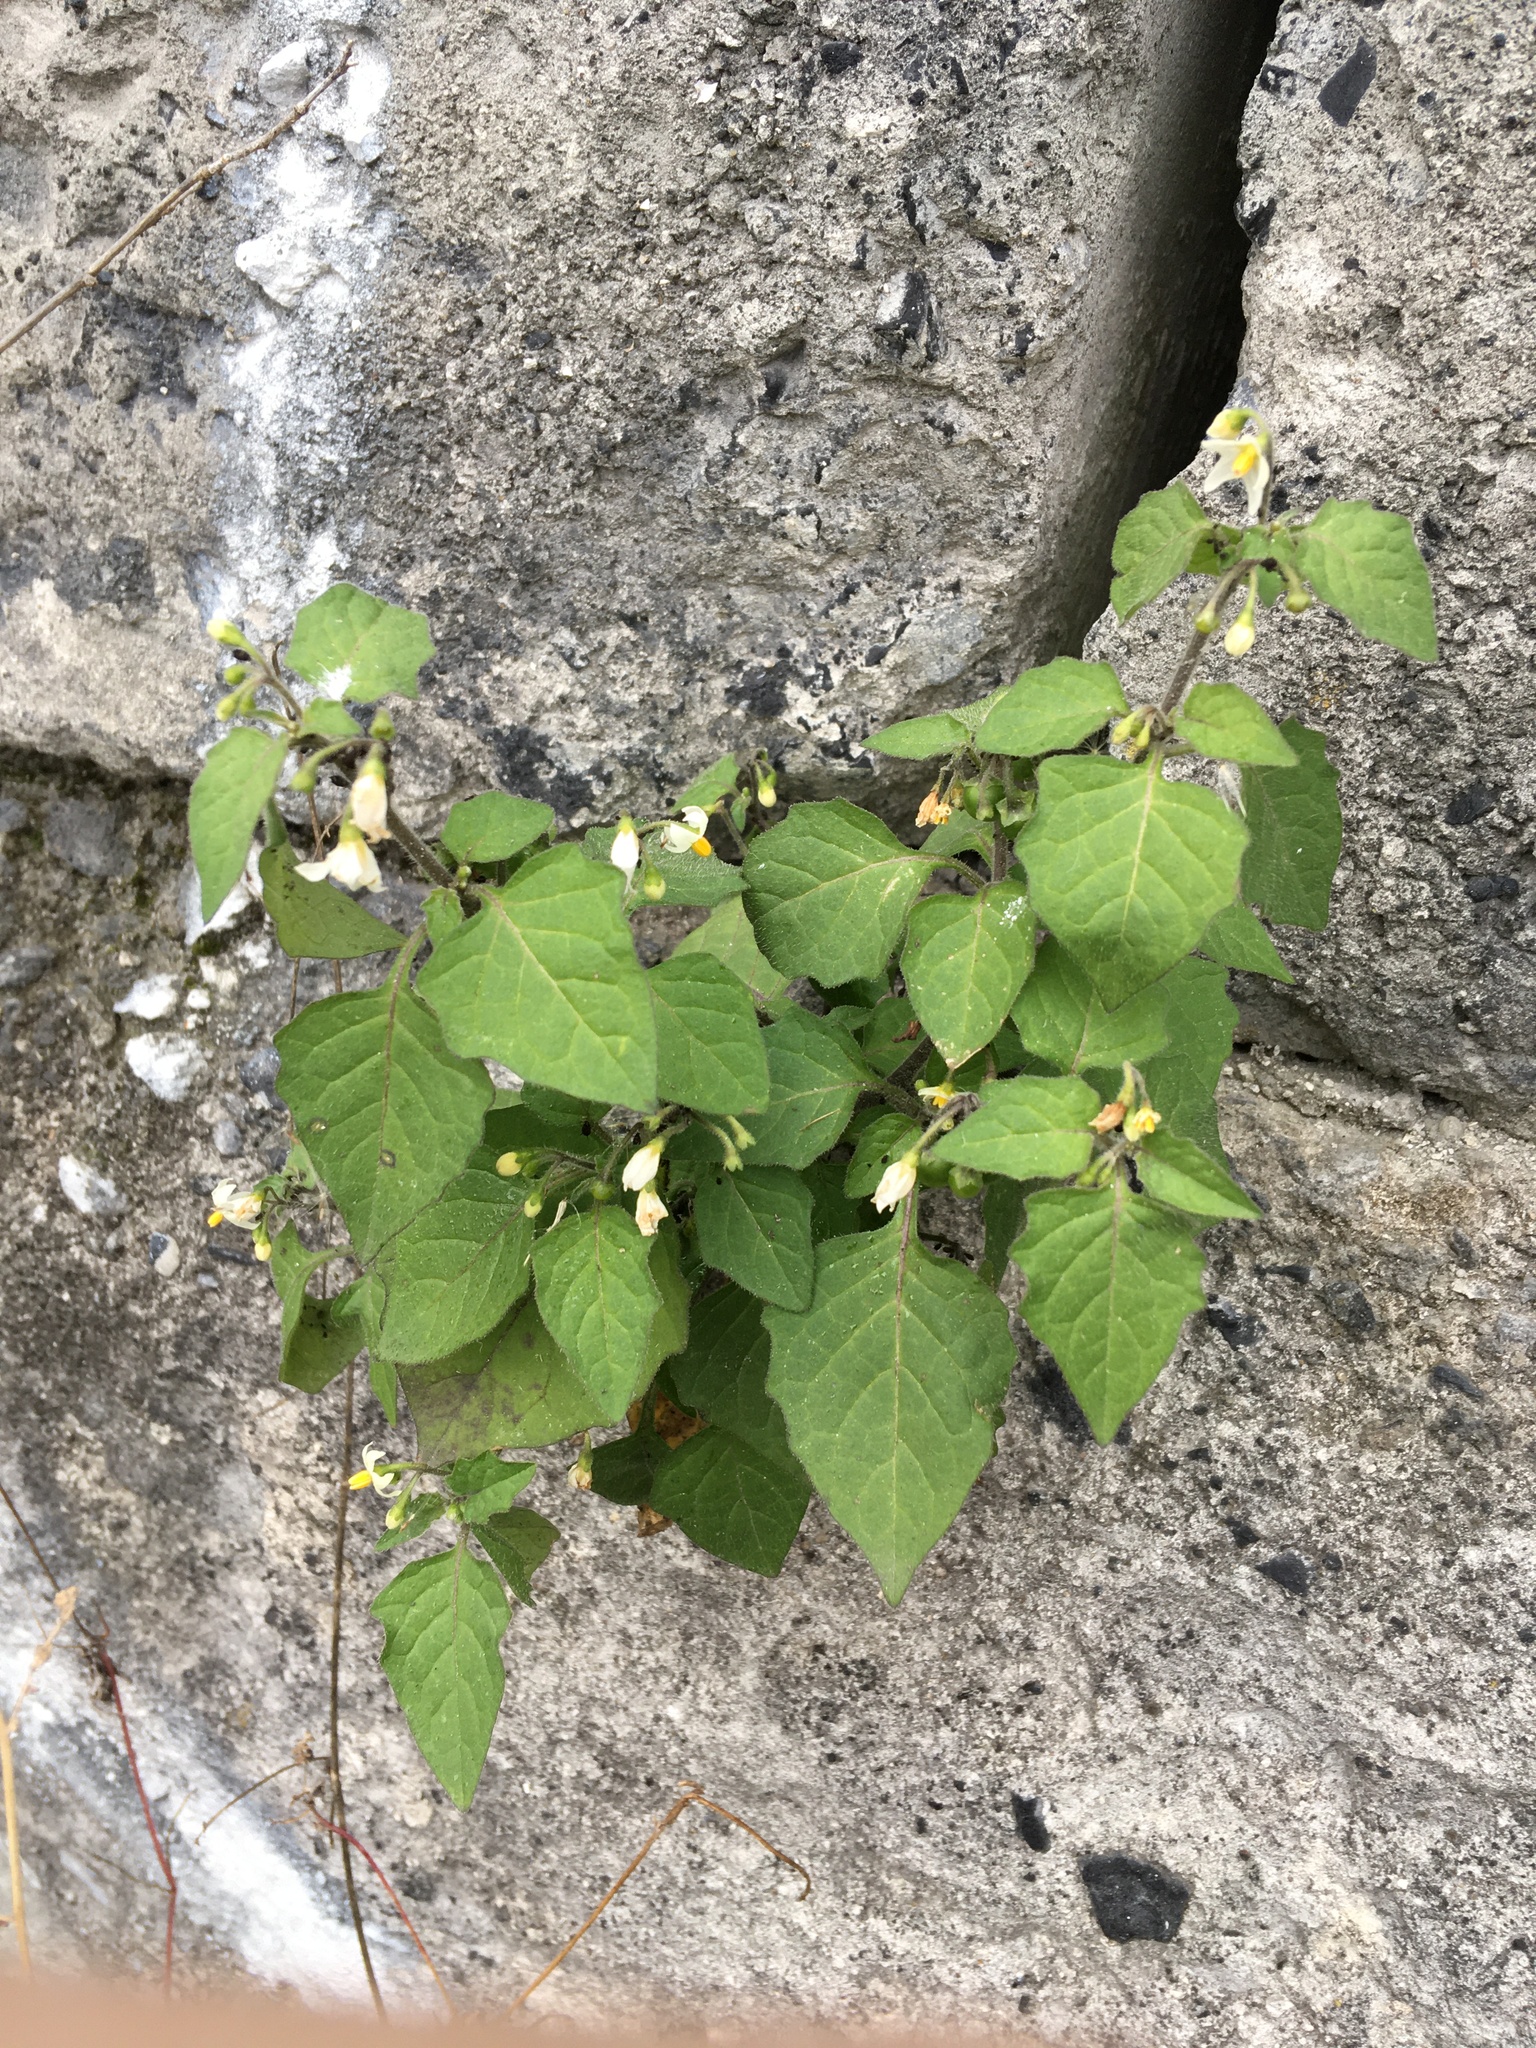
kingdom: Plantae
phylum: Tracheophyta
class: Magnoliopsida
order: Solanales
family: Solanaceae
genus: Solanum
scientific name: Solanum nigrum
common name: Black nightshade
